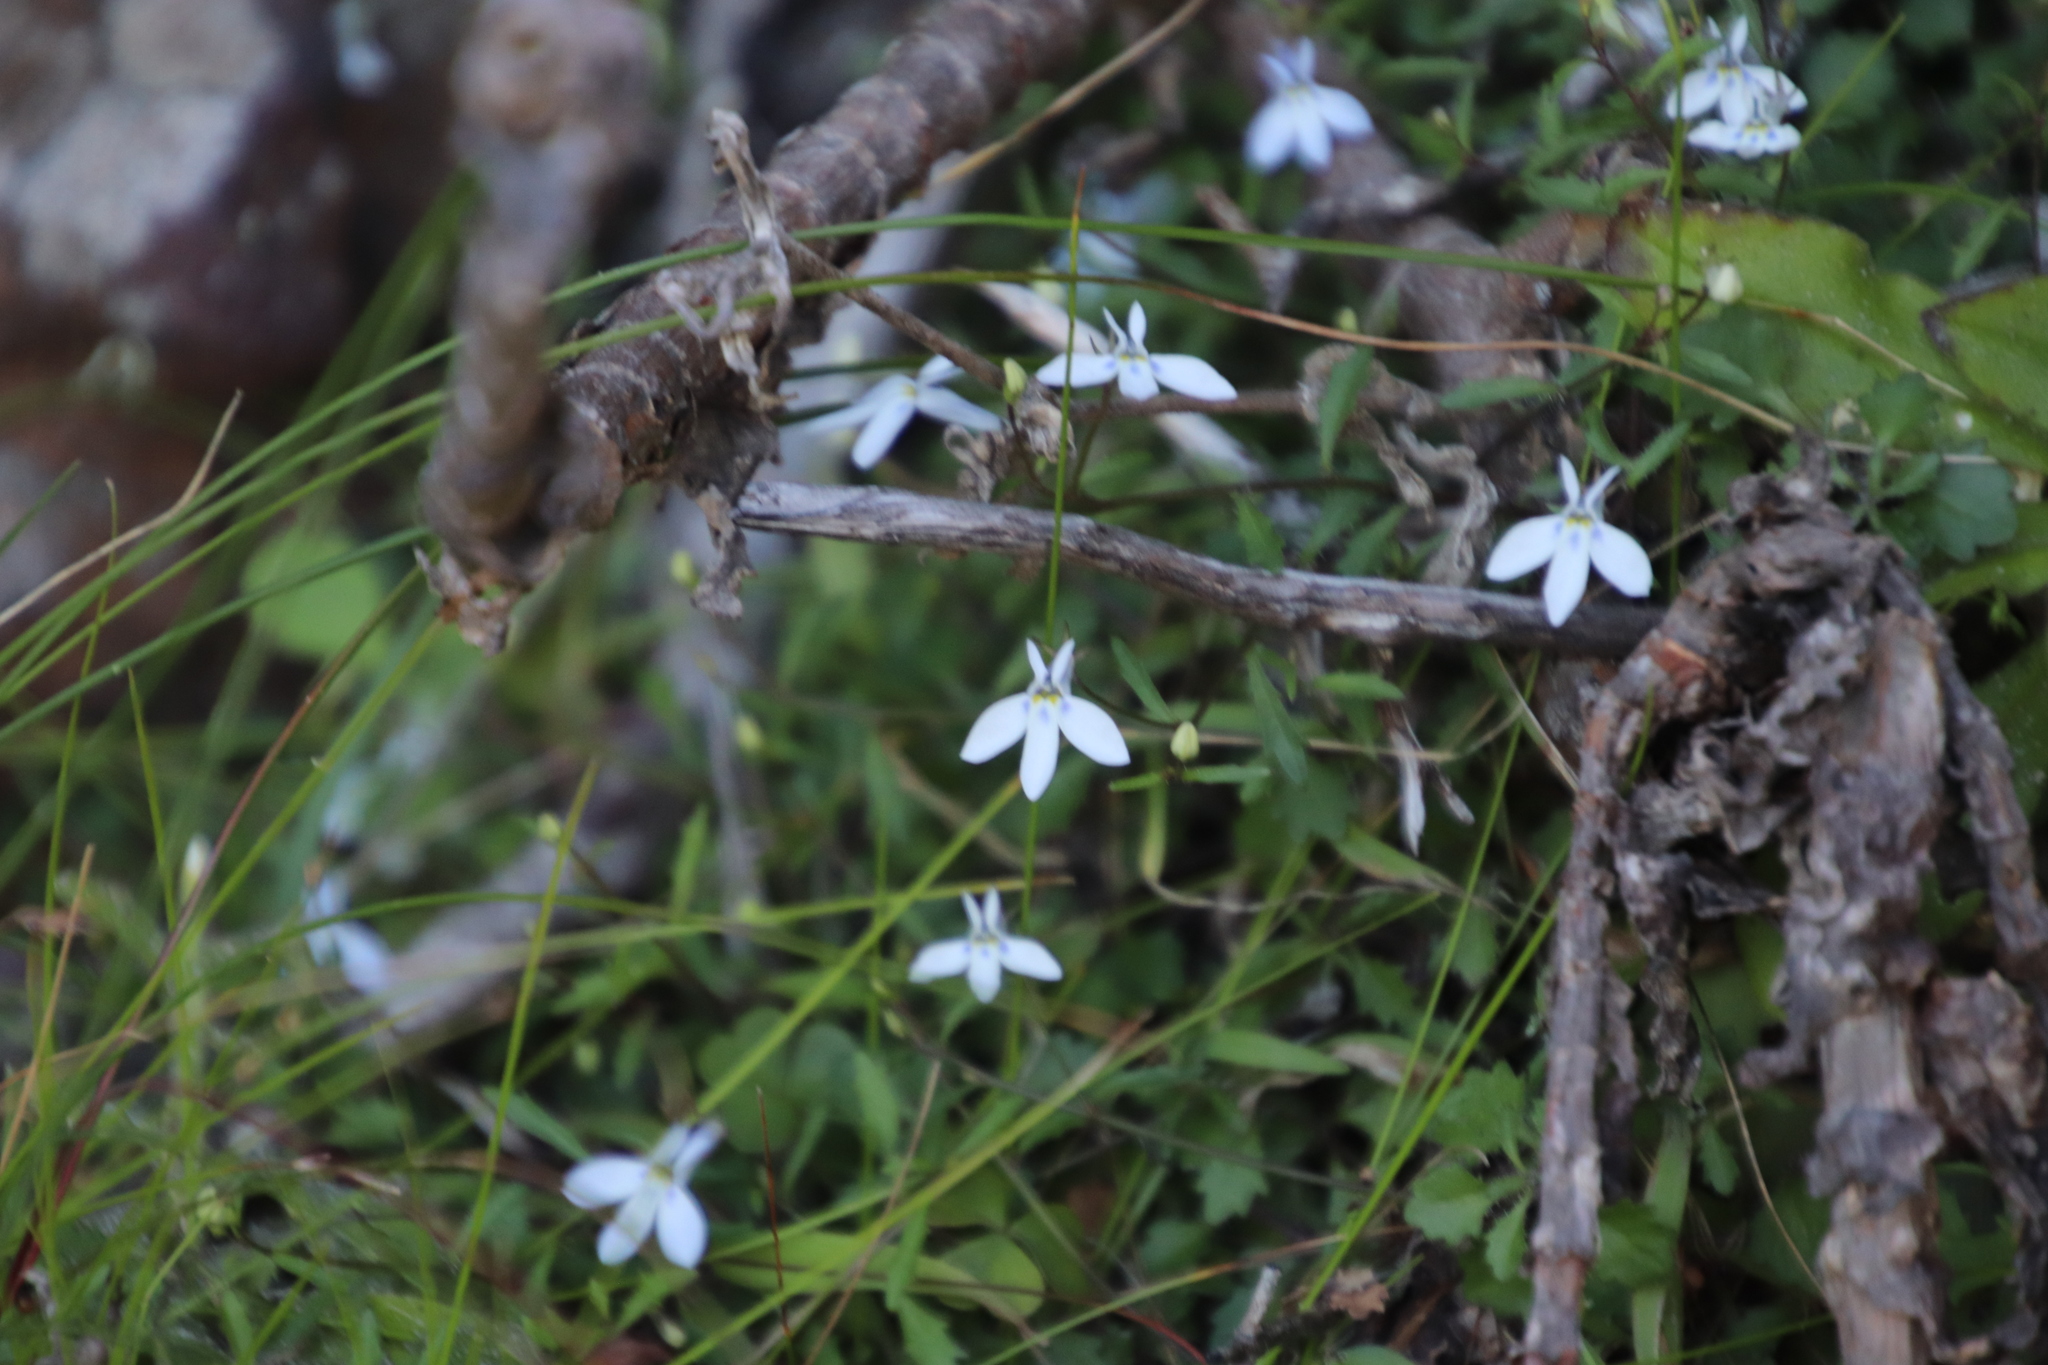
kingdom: Plantae
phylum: Tracheophyta
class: Magnoliopsida
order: Asterales
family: Campanulaceae
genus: Lobelia
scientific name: Lobelia pubescens
